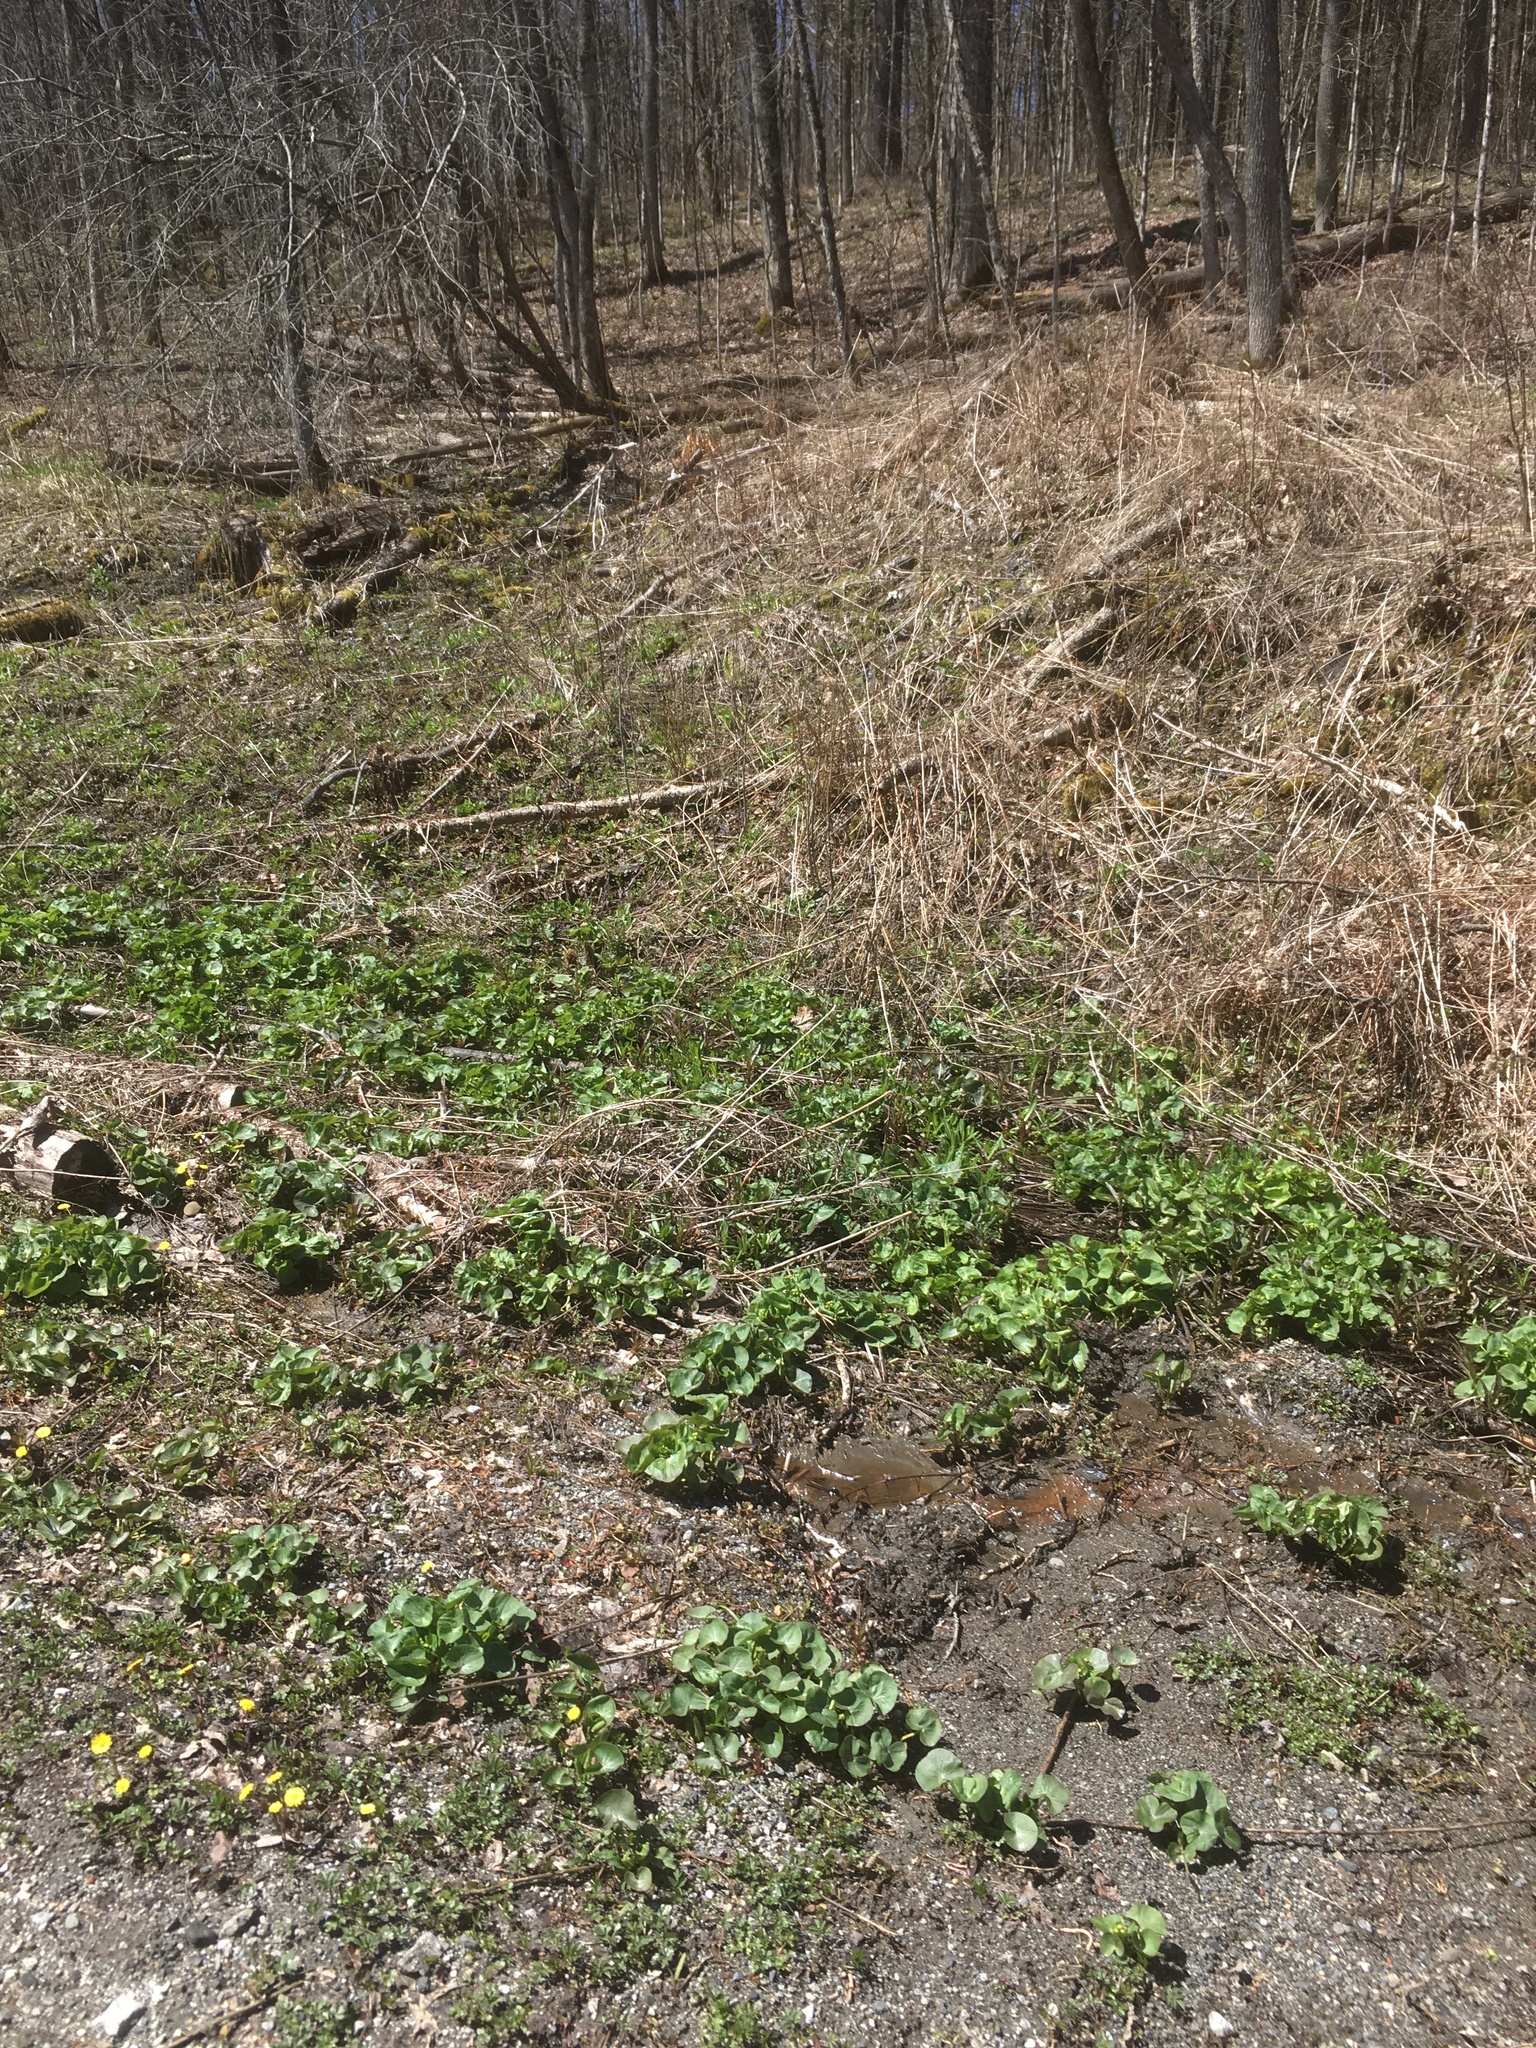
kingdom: Plantae
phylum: Tracheophyta
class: Magnoliopsida
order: Ranunculales
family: Ranunculaceae
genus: Caltha
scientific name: Caltha palustris
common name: Marsh marigold
